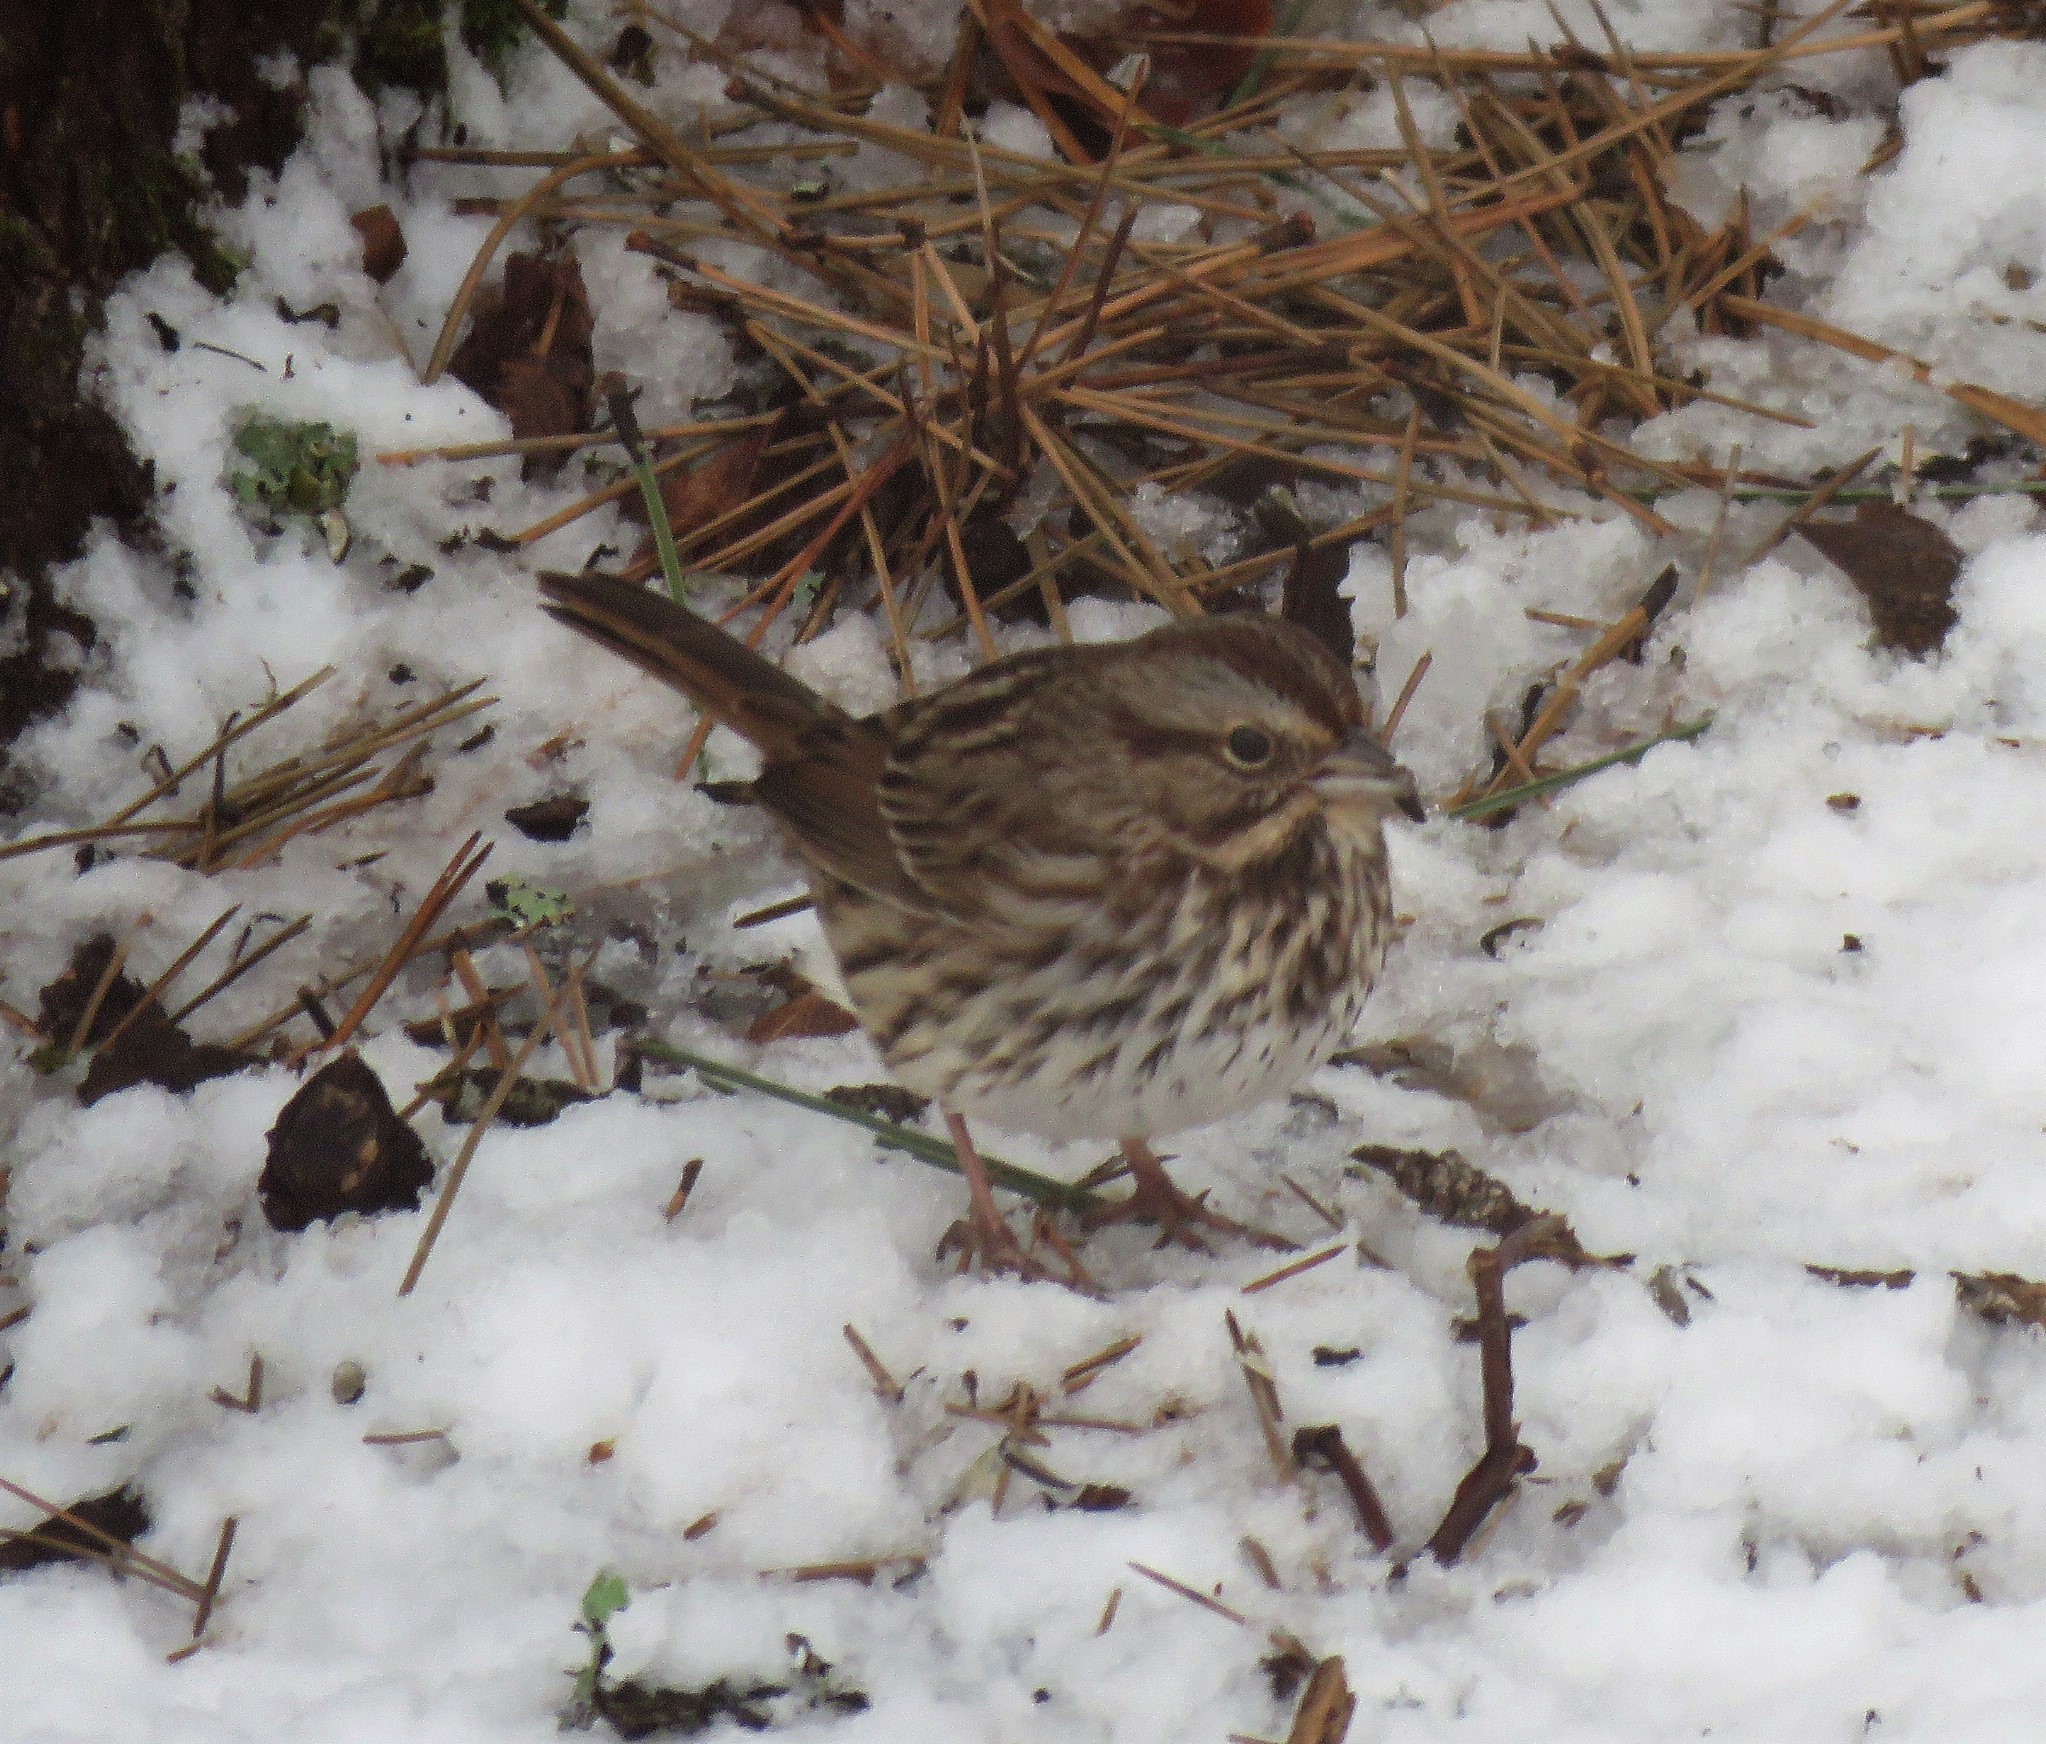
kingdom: Animalia
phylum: Chordata
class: Aves
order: Passeriformes
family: Passerellidae
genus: Melospiza
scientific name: Melospiza melodia
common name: Song sparrow
